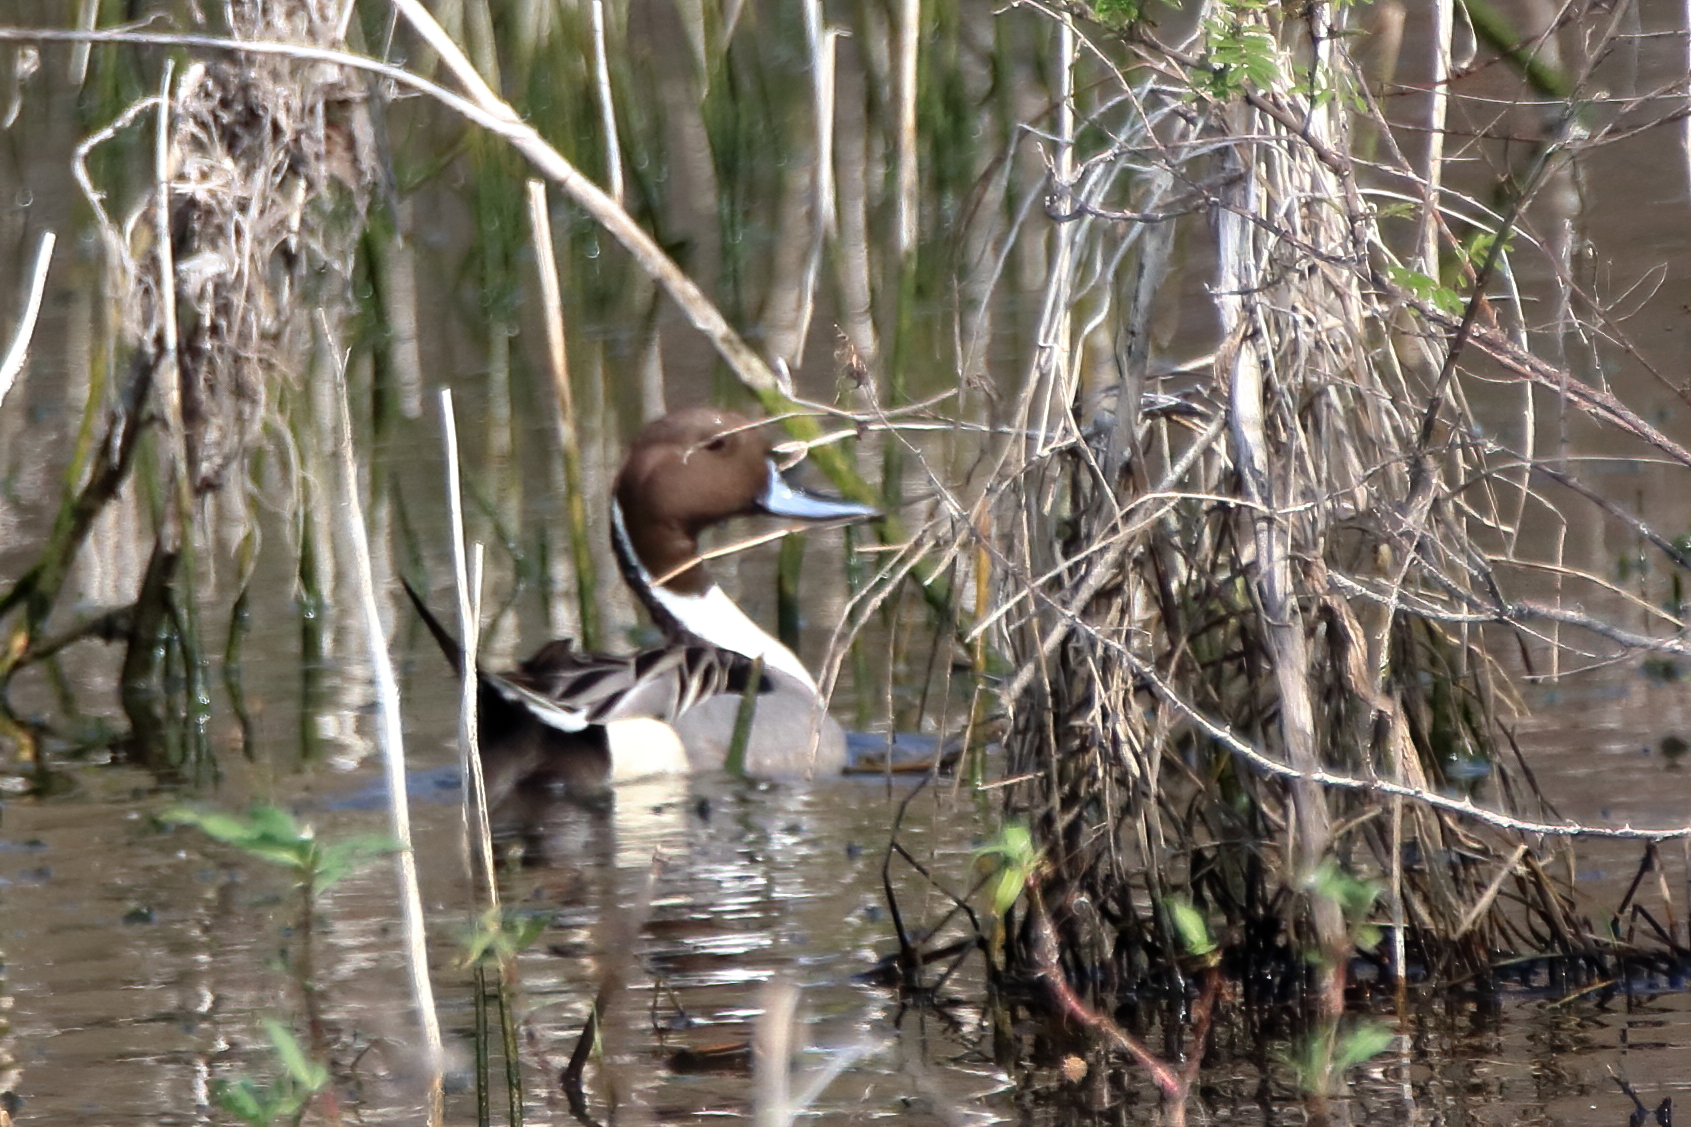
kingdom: Animalia
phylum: Chordata
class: Aves
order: Anseriformes
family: Anatidae
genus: Anas
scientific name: Anas acuta
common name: Northern pintail
